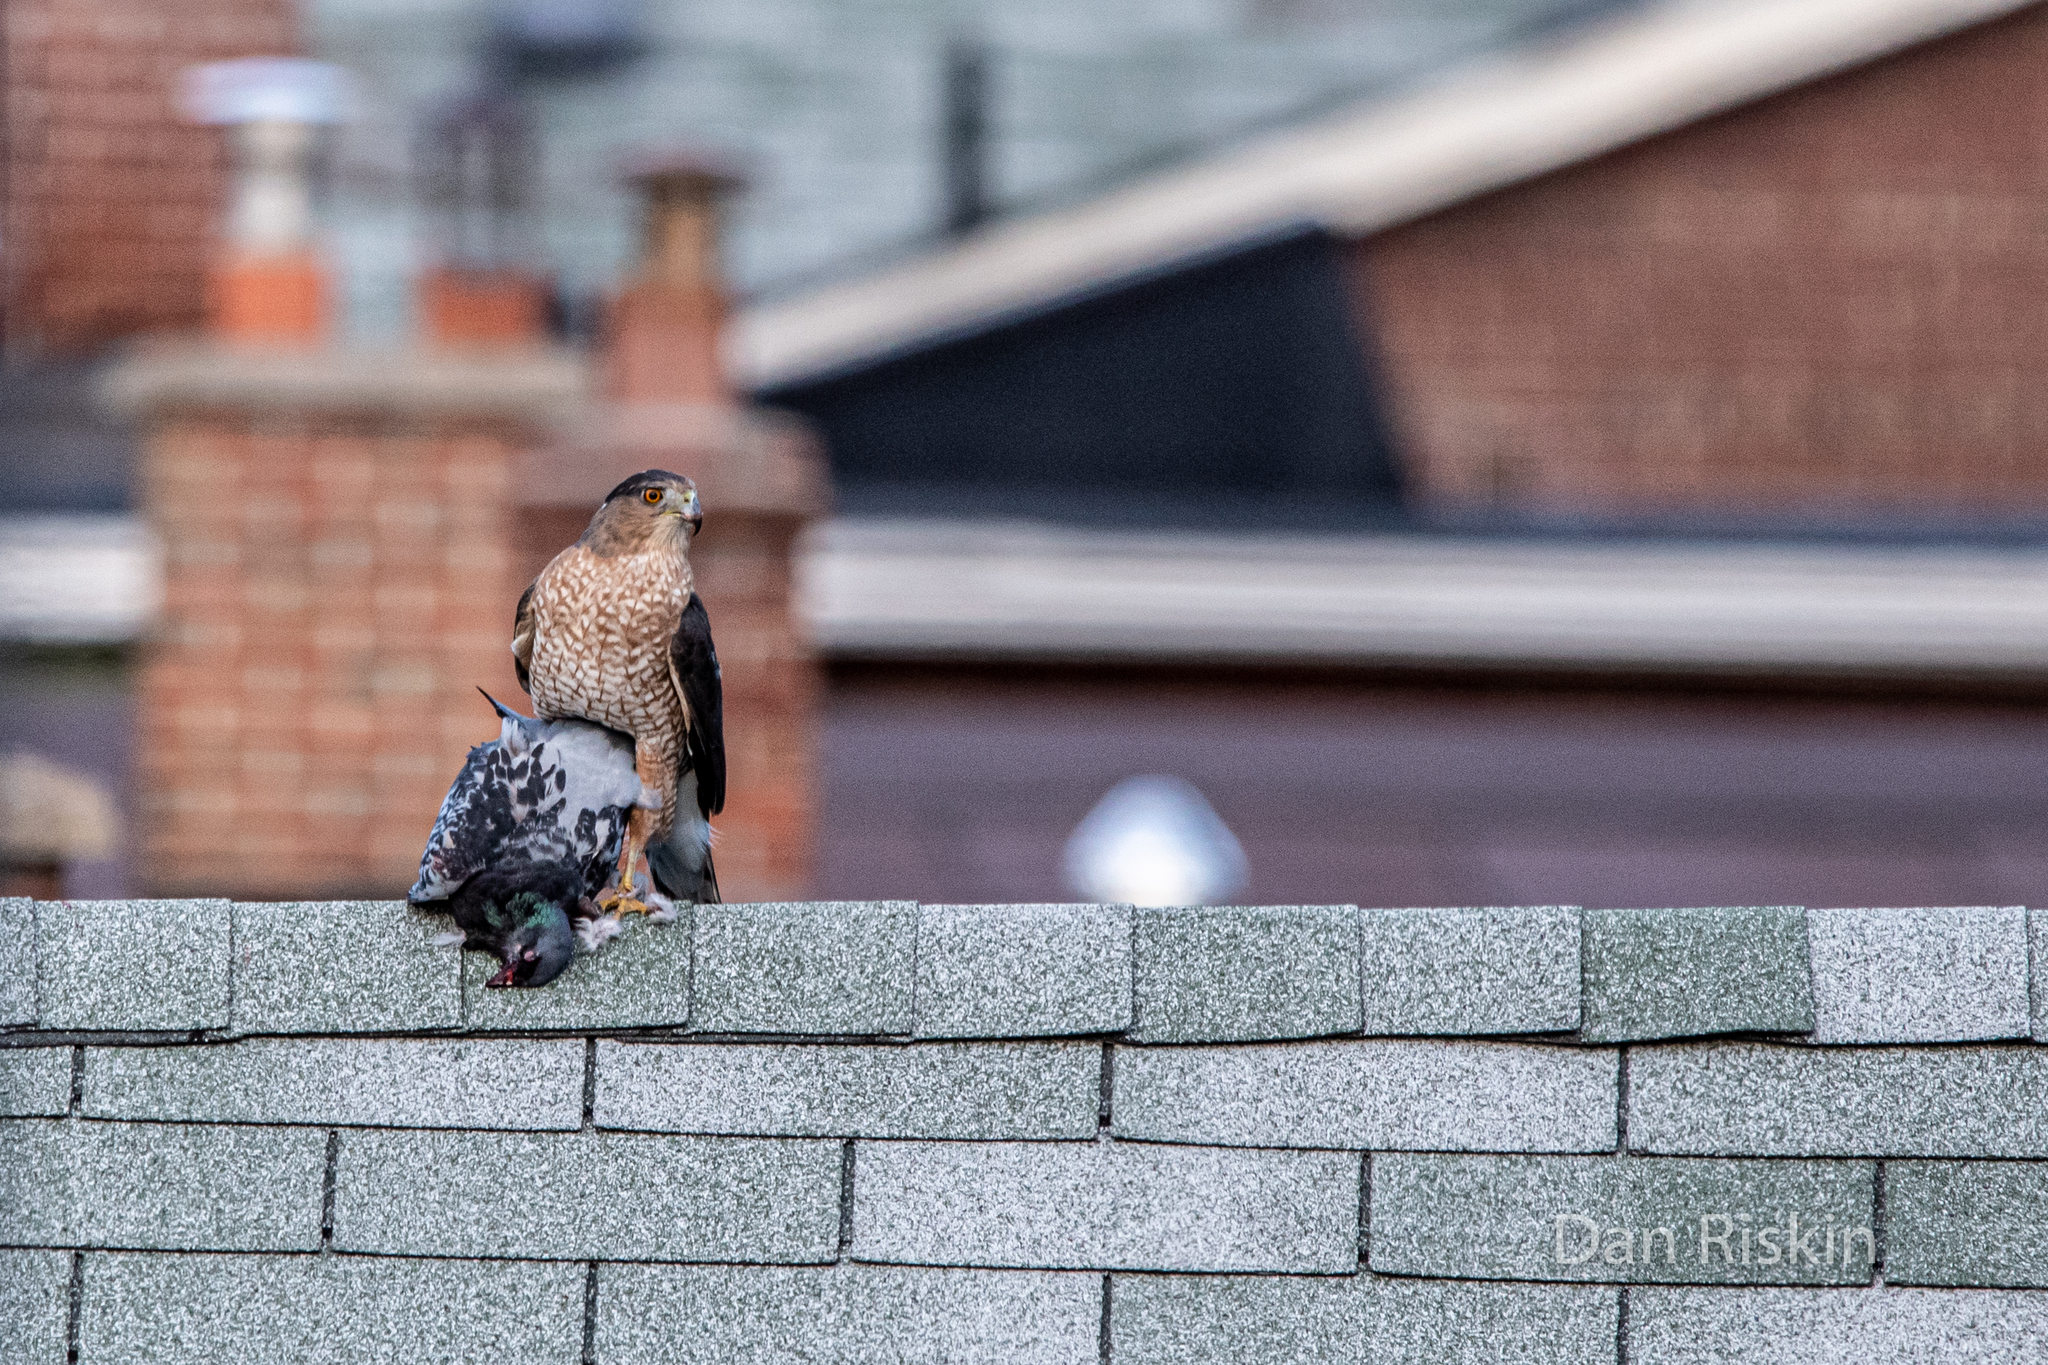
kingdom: Animalia
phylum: Chordata
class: Aves
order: Accipitriformes
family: Accipitridae
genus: Accipiter
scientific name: Accipiter cooperii
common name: Cooper's hawk
